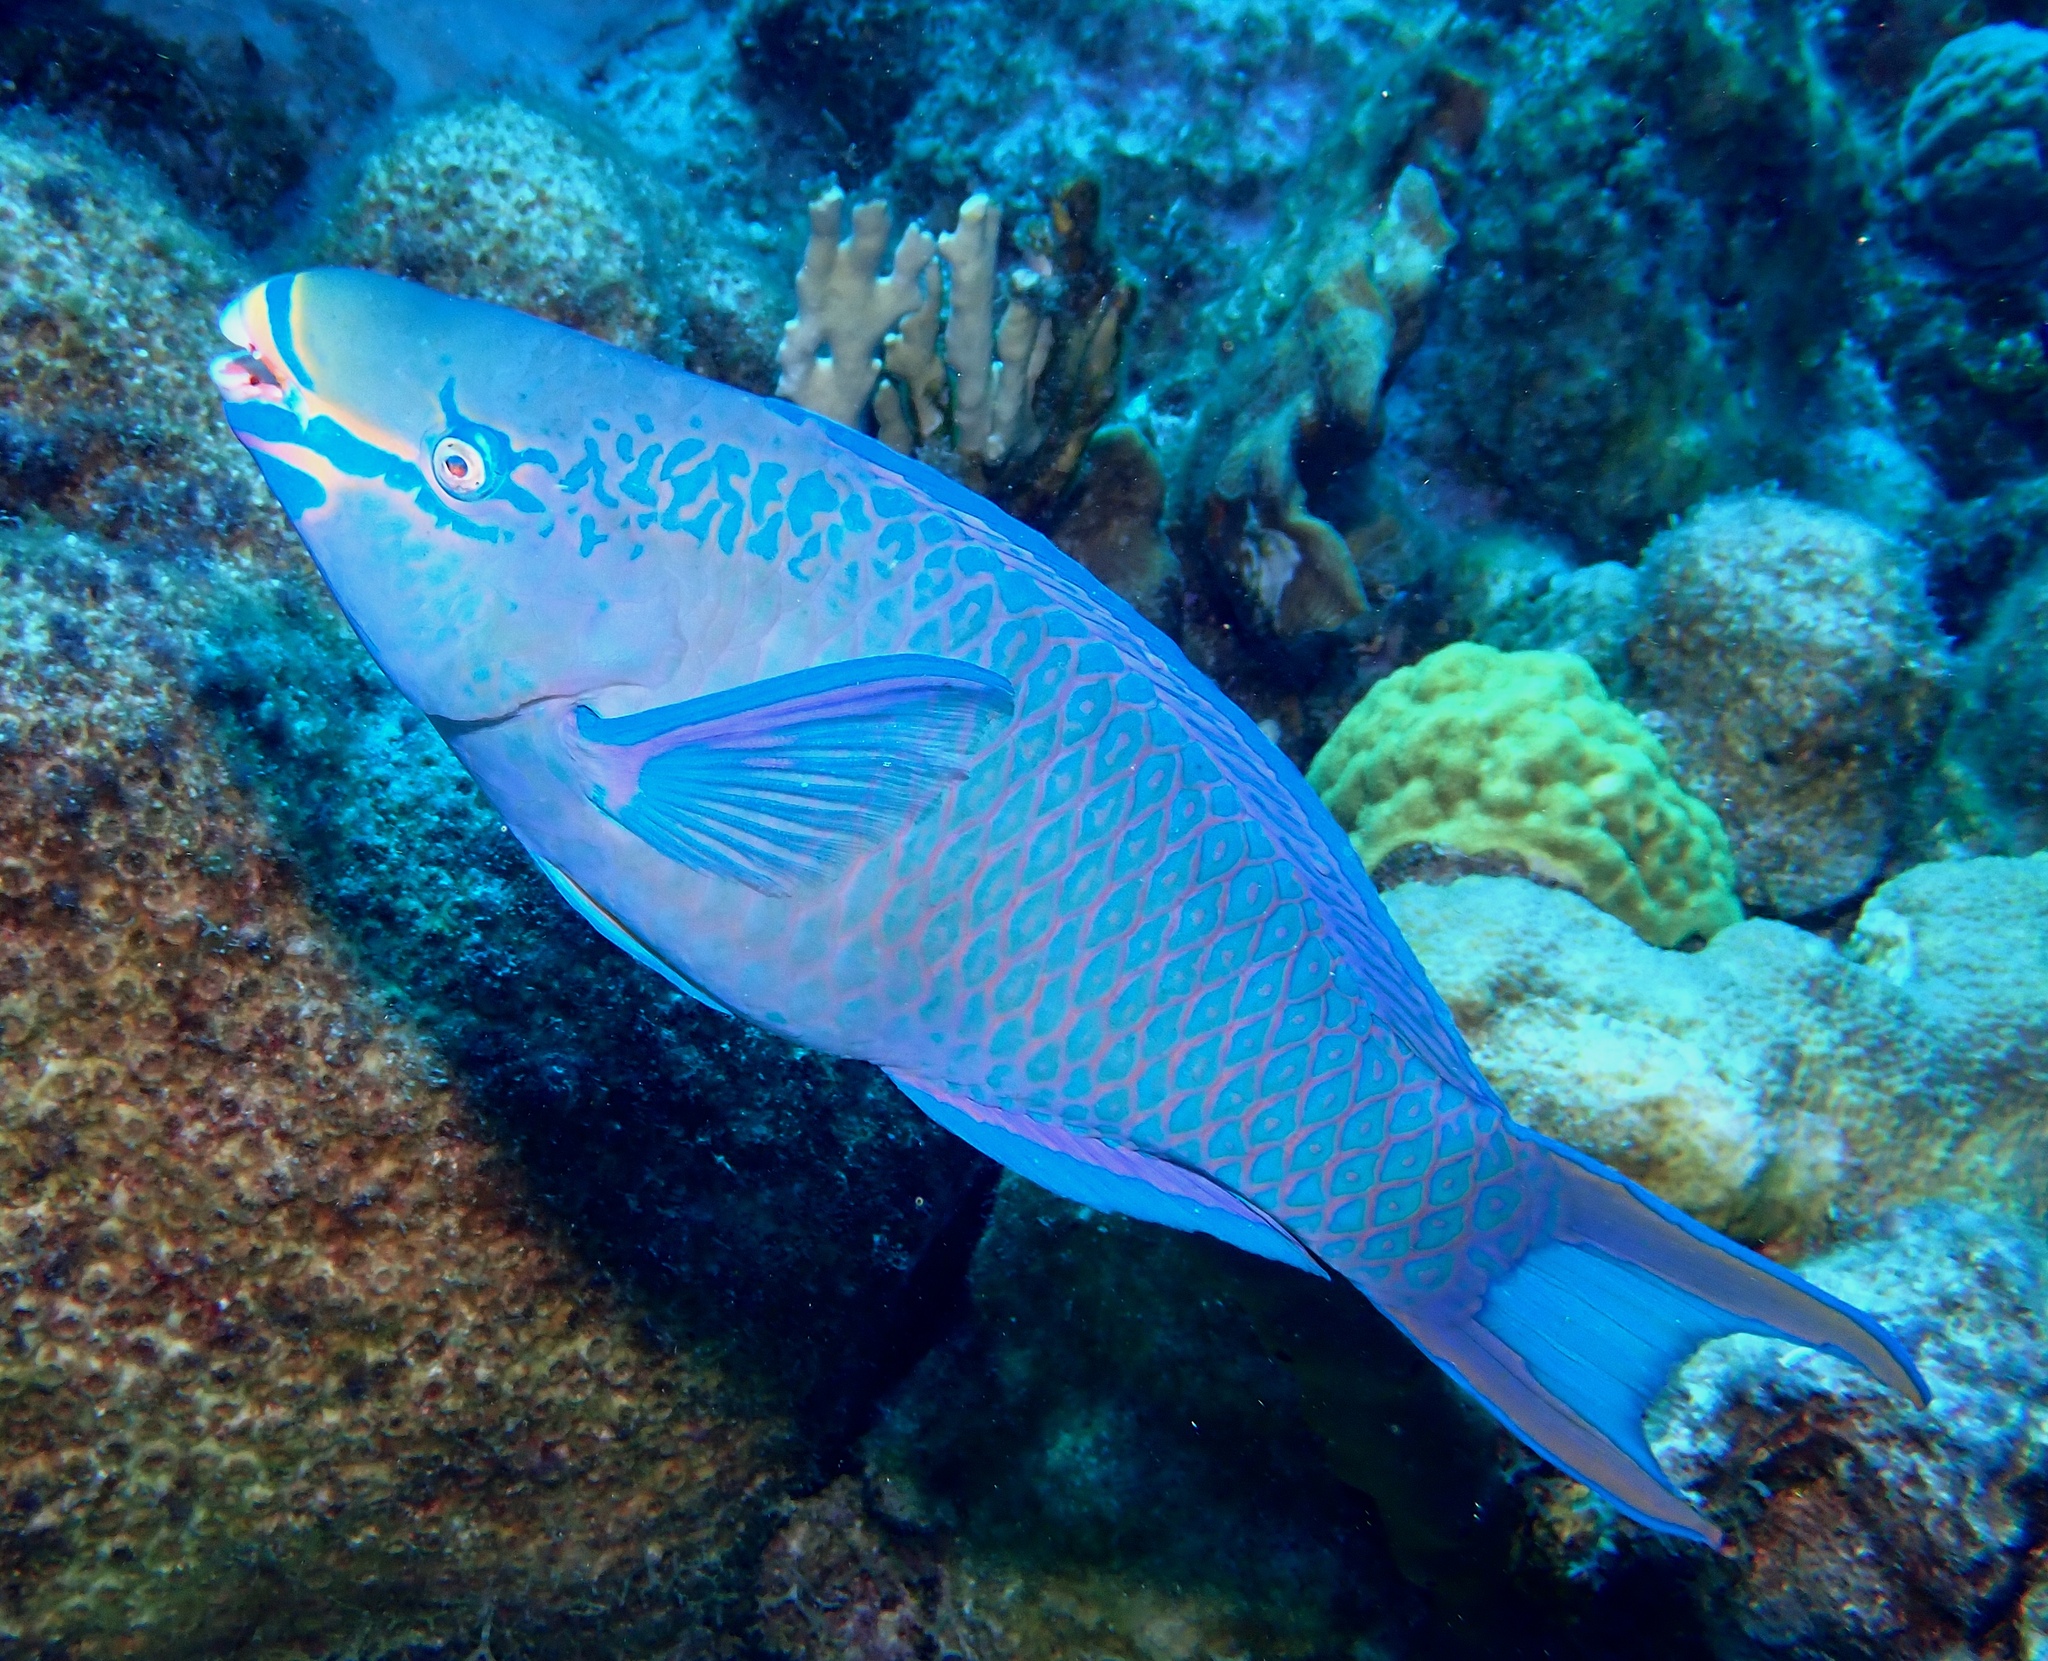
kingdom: Animalia
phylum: Chordata
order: Perciformes
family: Scaridae
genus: Scarus
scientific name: Scarus vetula
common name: Queen parrotfish
